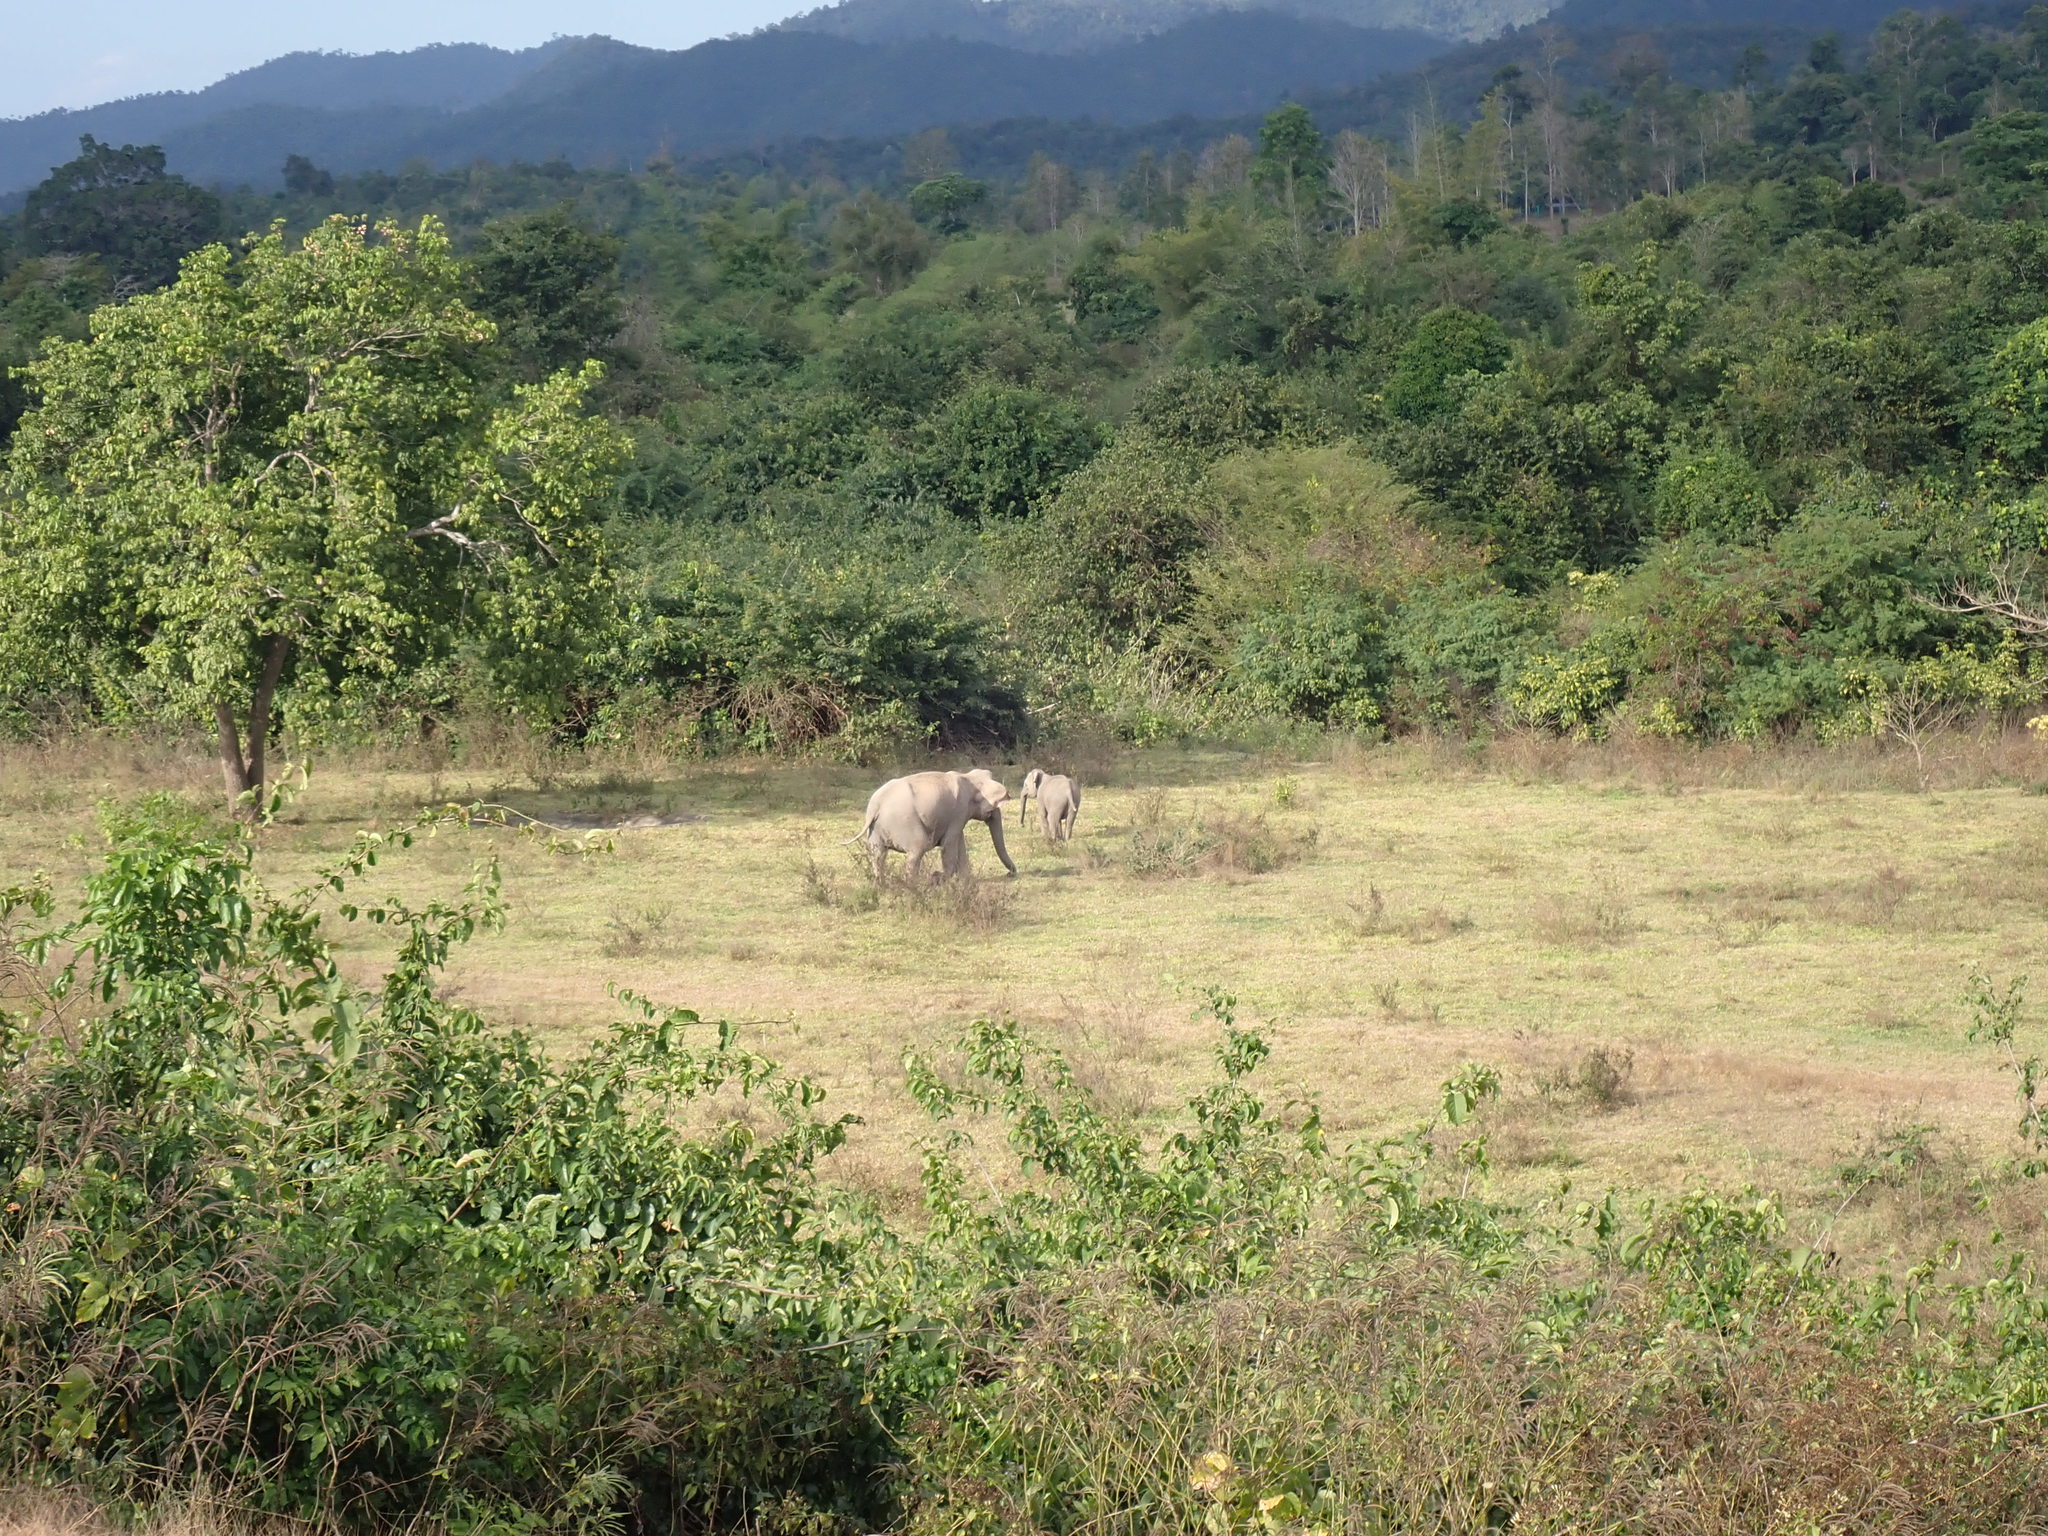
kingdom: Animalia
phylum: Chordata
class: Mammalia
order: Proboscidea
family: Elephantidae
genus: Elephas
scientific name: Elephas maximus
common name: Asian elephant
